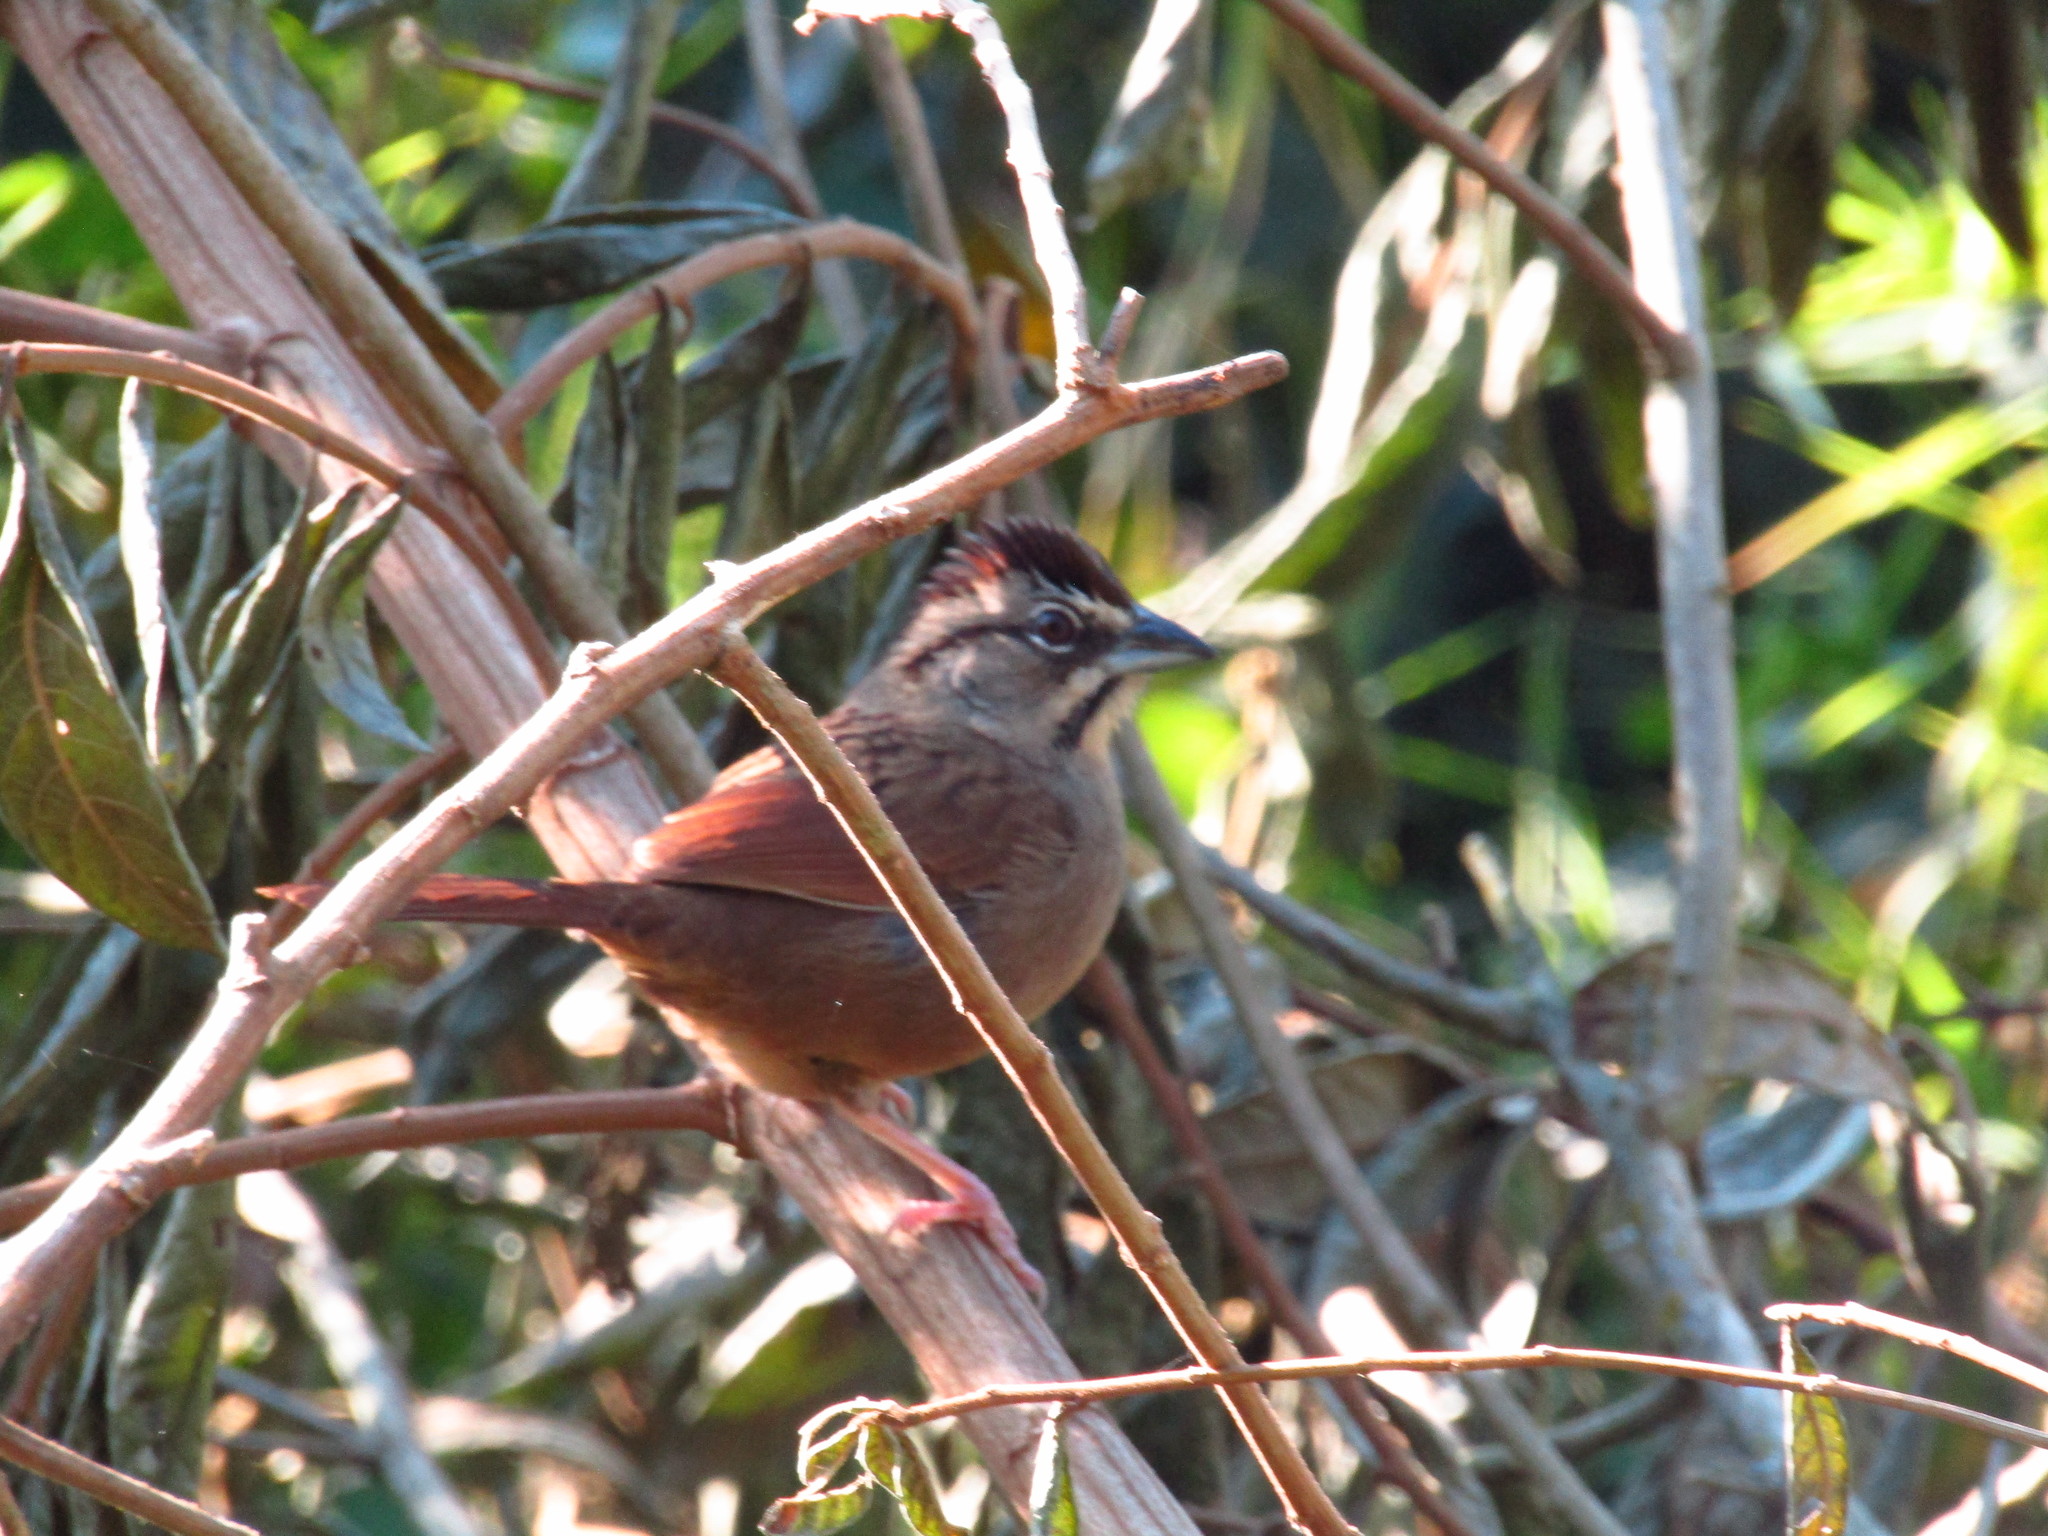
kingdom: Animalia
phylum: Chordata
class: Aves
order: Passeriformes
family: Passerellidae
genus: Aimophila
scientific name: Aimophila rufescens
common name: Rusty sparrow
